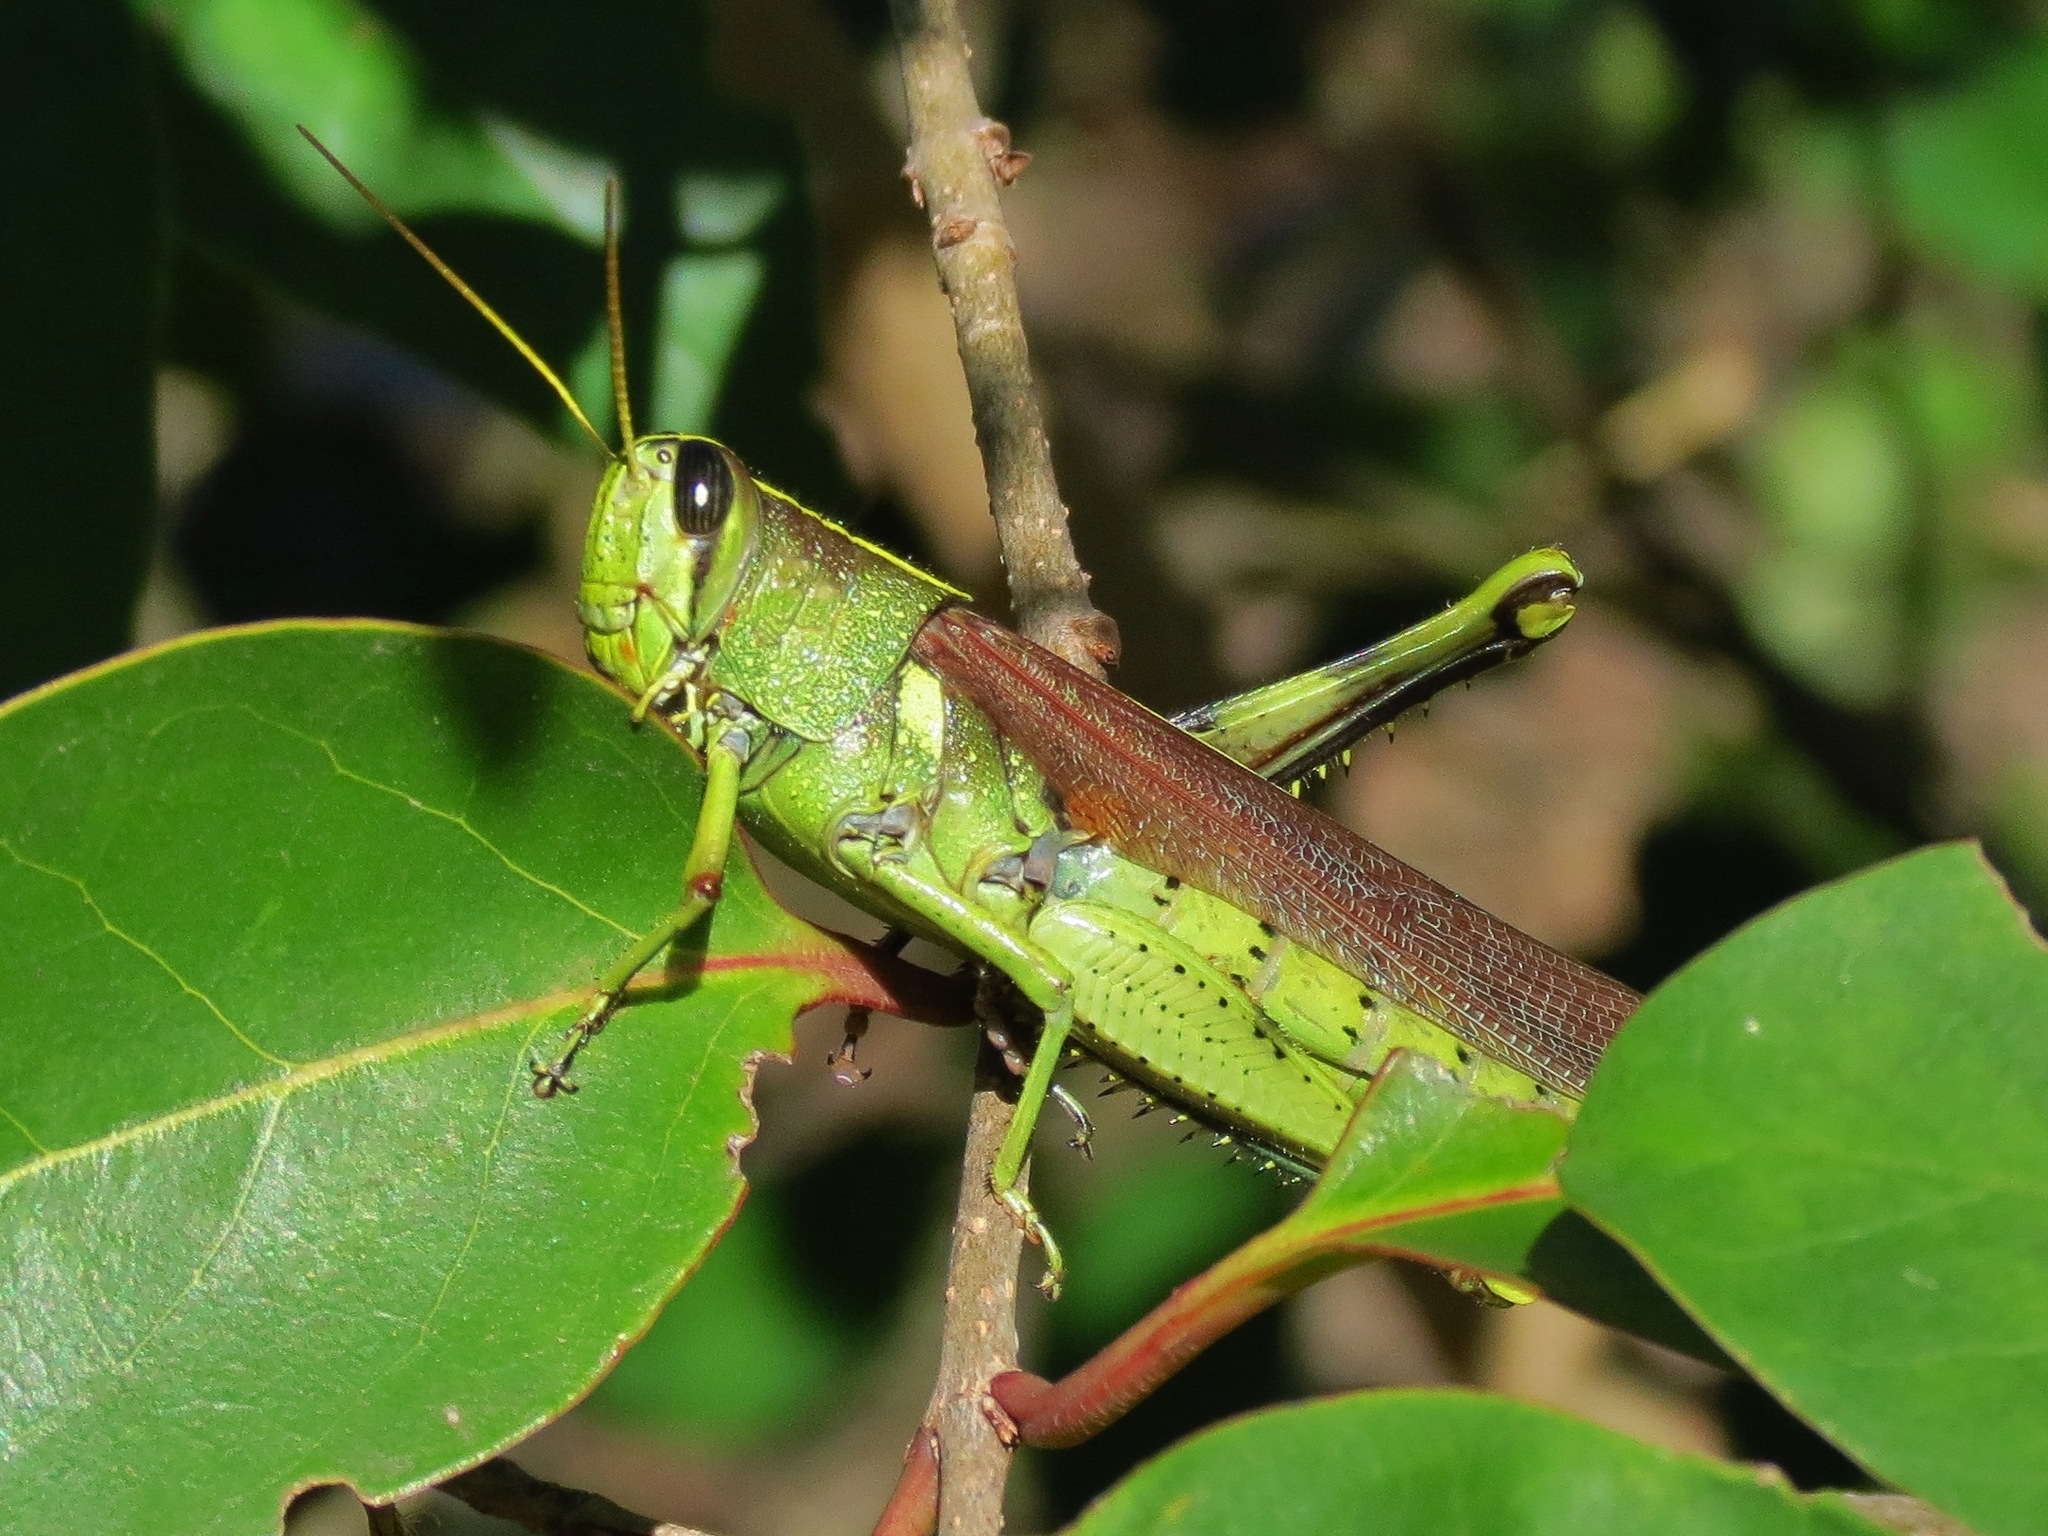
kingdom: Animalia
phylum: Arthropoda
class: Insecta
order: Orthoptera
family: Acrididae
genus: Schistocerca
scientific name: Schistocerca obscura
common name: Obscure bird grasshopper
